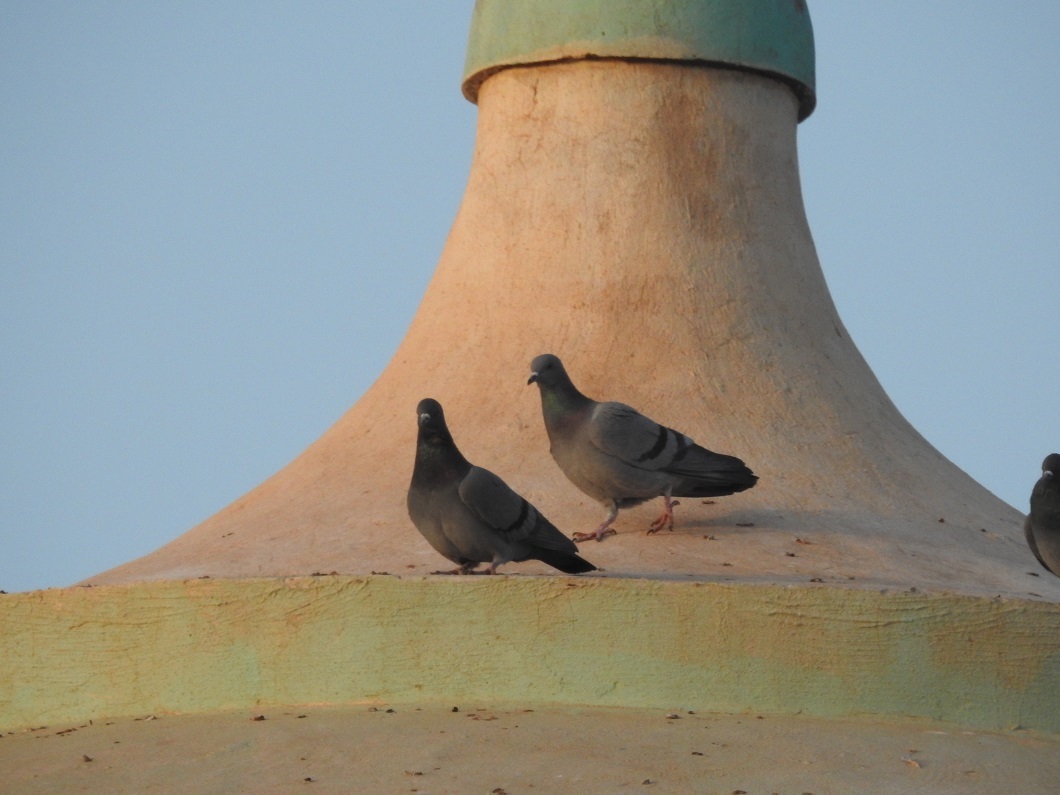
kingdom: Animalia
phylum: Chordata
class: Aves
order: Columbiformes
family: Columbidae
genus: Columba
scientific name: Columba livia
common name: Rock pigeon
